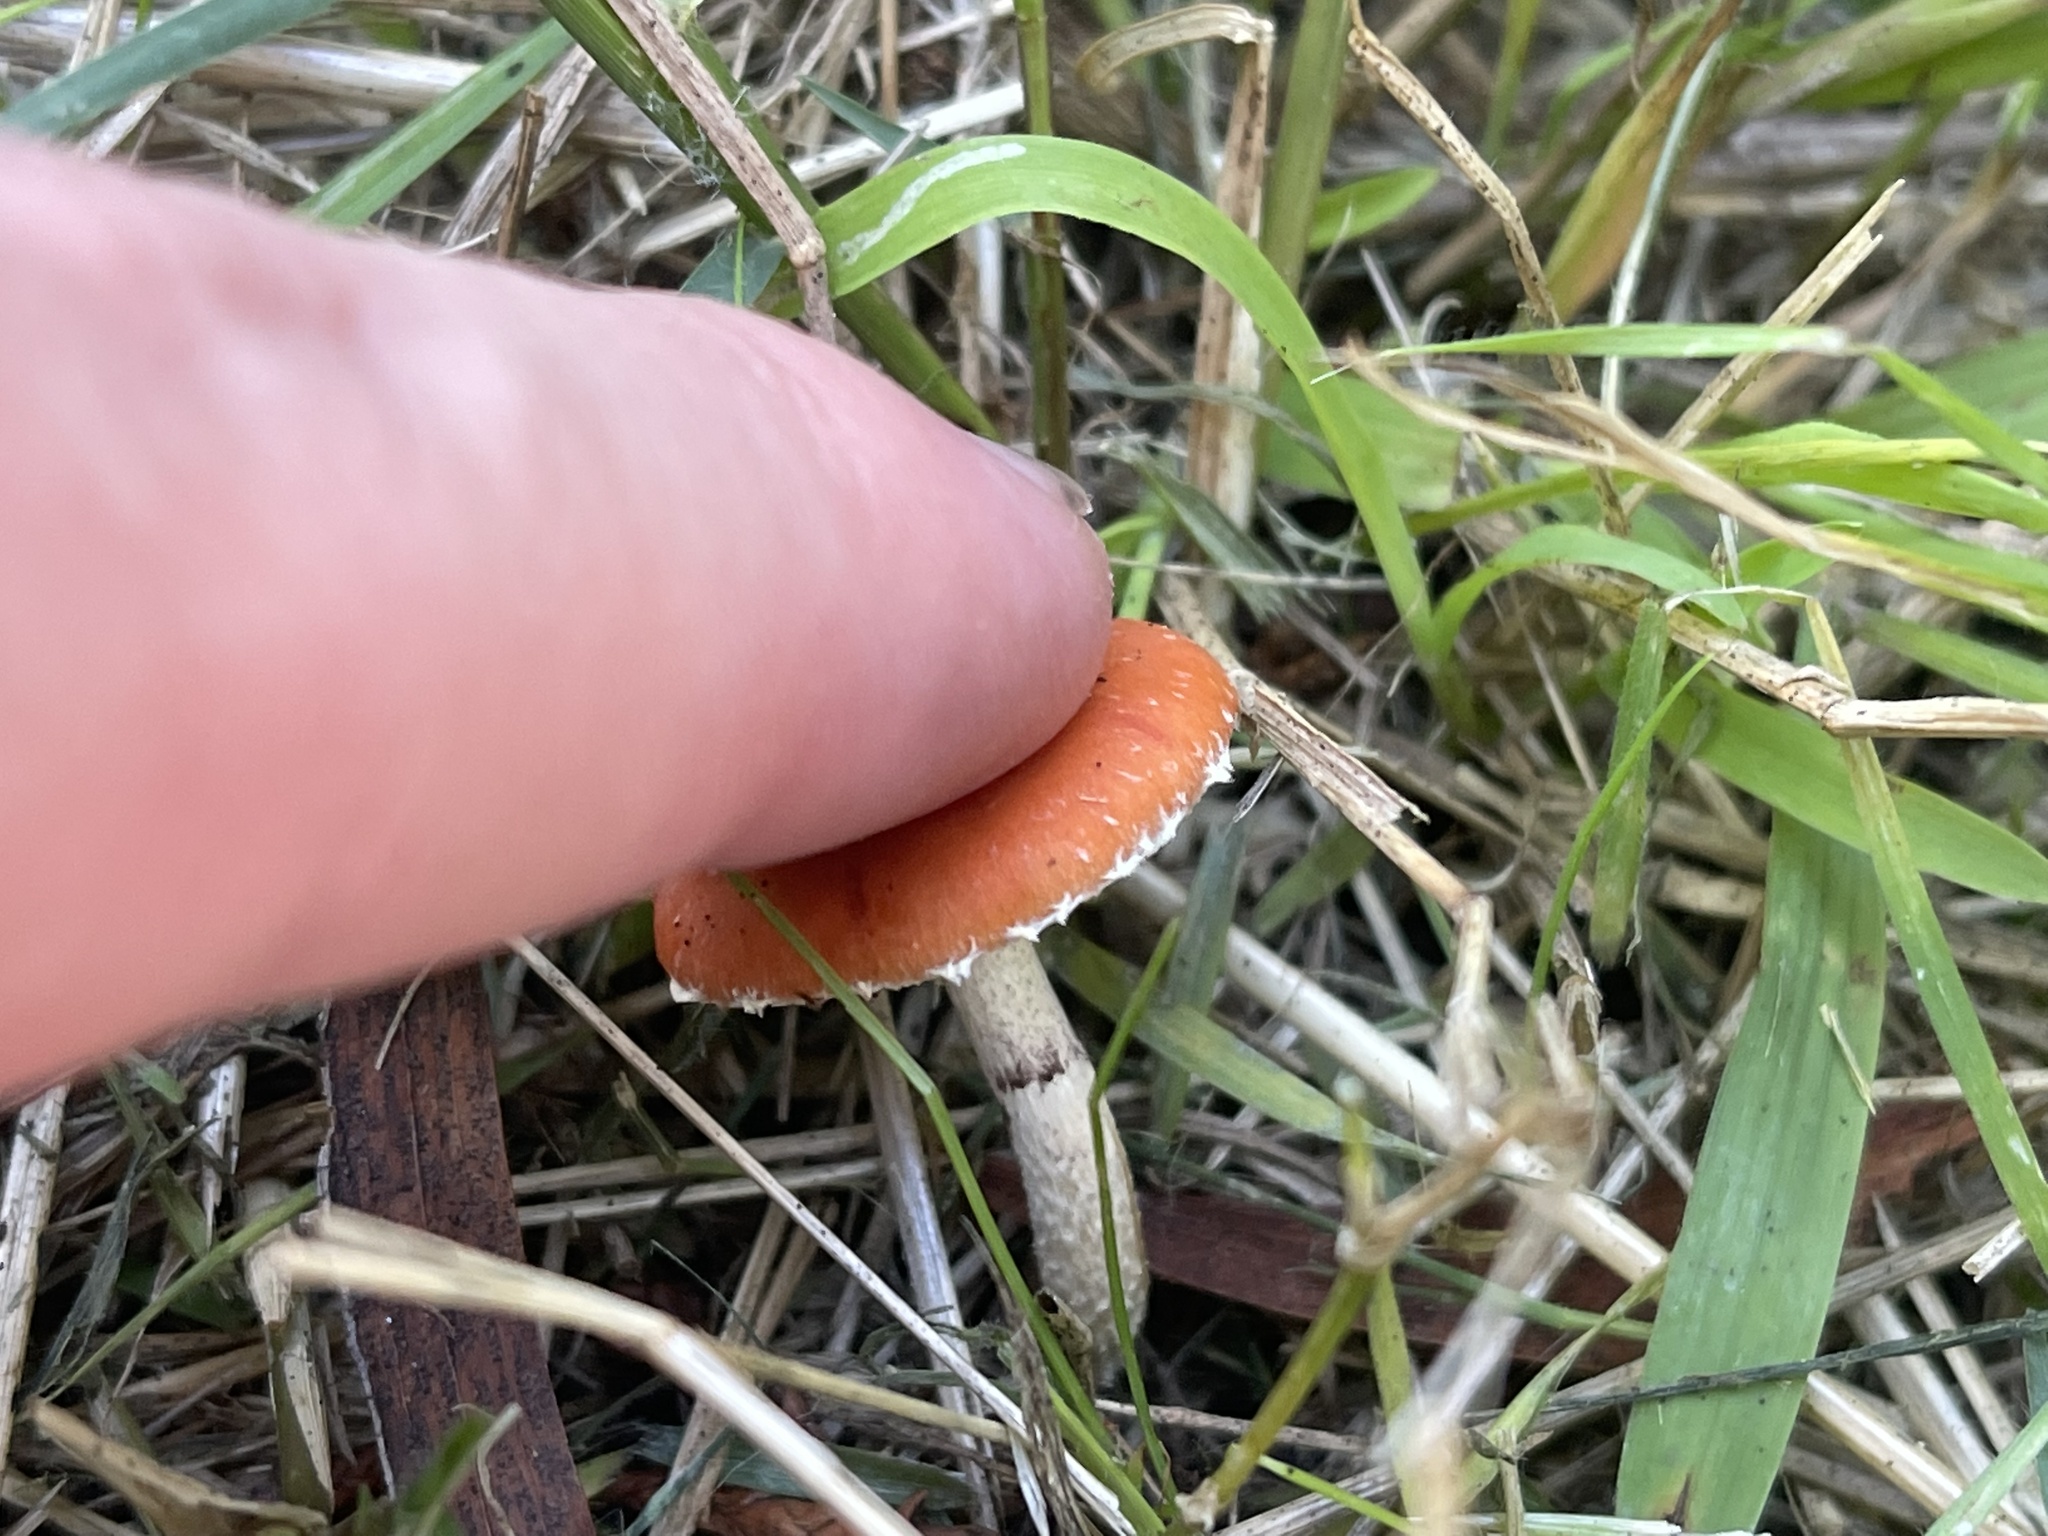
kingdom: Fungi
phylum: Basidiomycota
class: Agaricomycetes
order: Agaricales
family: Strophariaceae
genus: Leratiomyces
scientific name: Leratiomyces ceres
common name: Redlead roundhead
